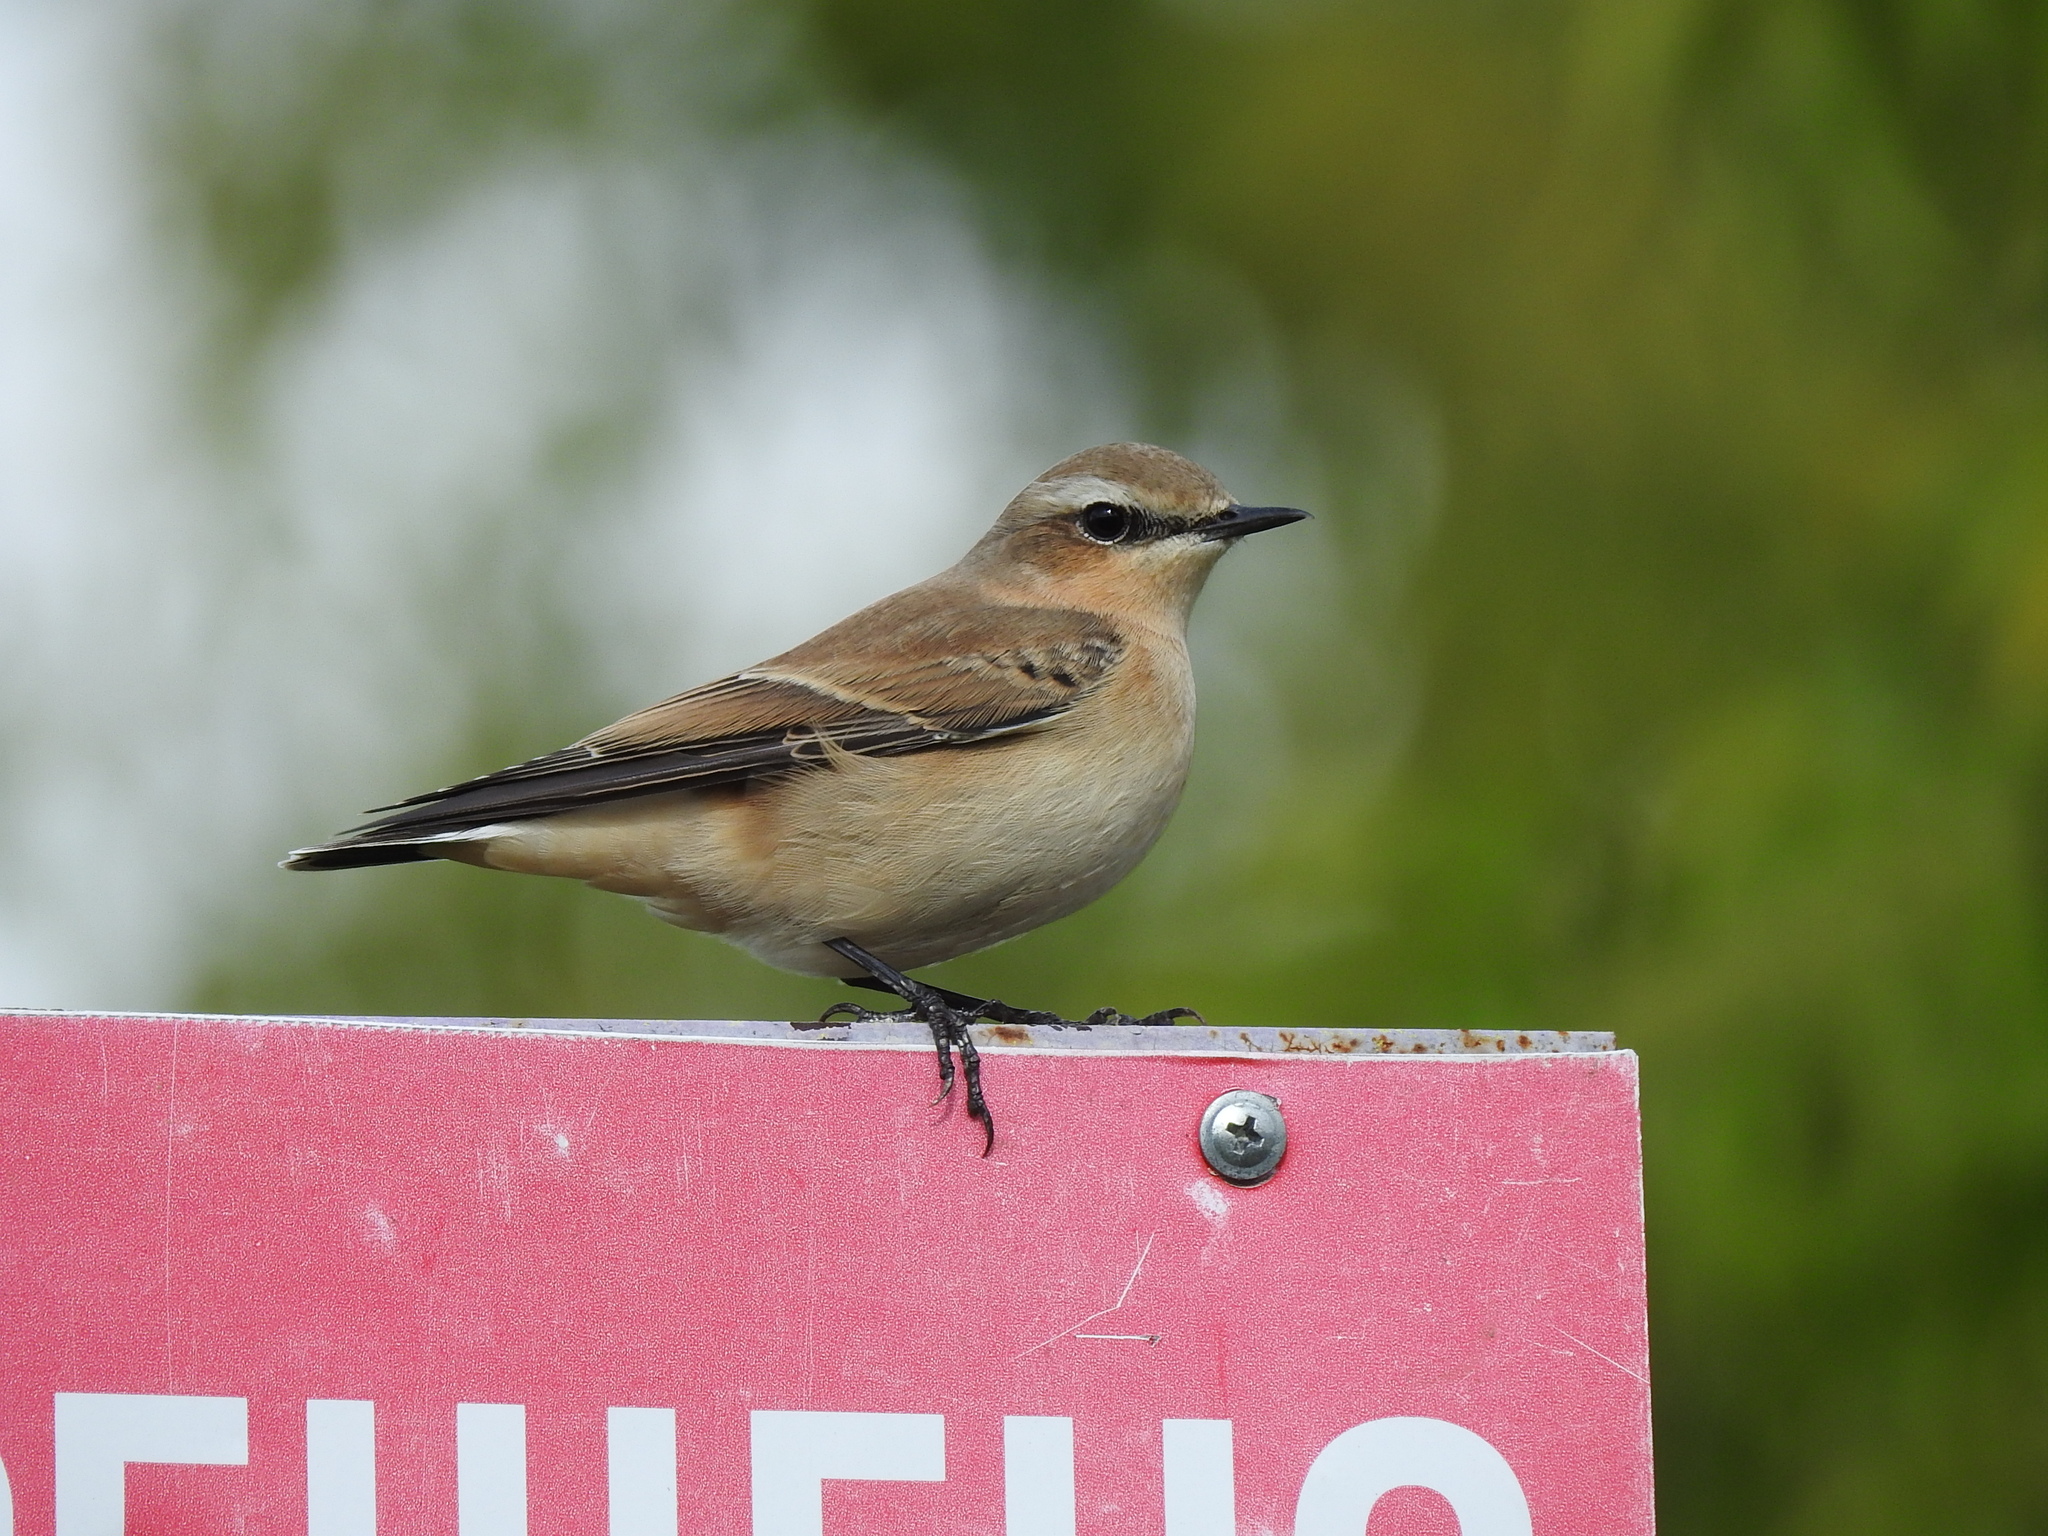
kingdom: Animalia
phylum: Chordata
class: Aves
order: Passeriformes
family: Muscicapidae
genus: Oenanthe
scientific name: Oenanthe oenanthe
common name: Northern wheatear
